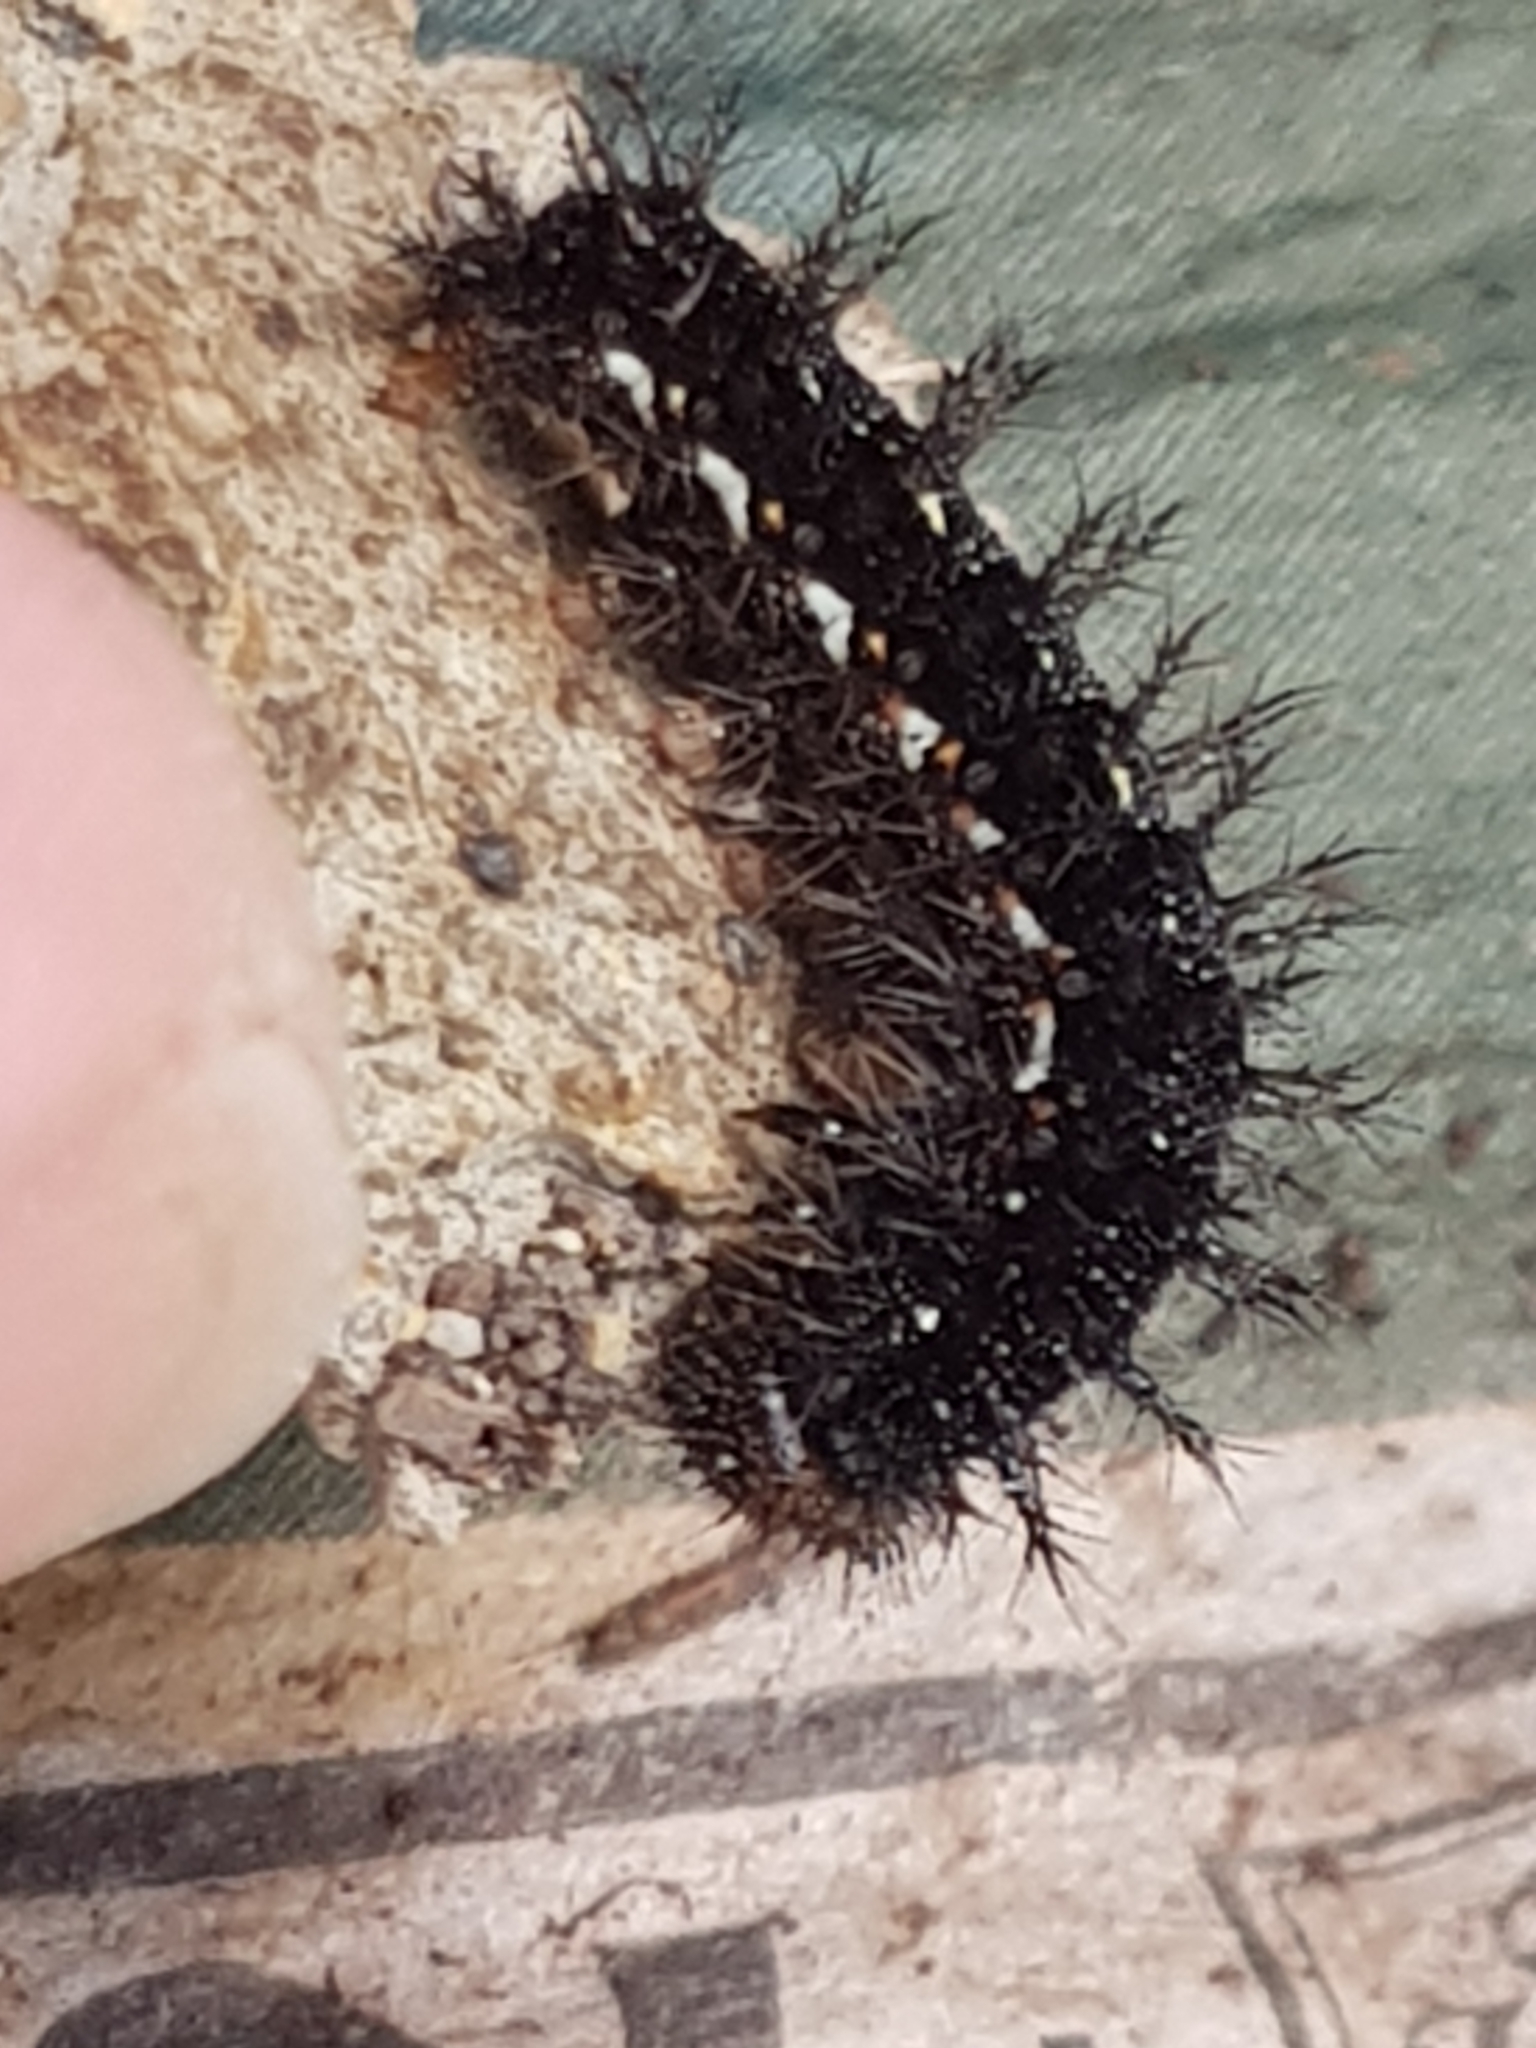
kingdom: Animalia
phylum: Arthropoda
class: Insecta
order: Lepidoptera
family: Nymphalidae
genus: Vanessa
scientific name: Vanessa itea
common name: Yellow admiral
